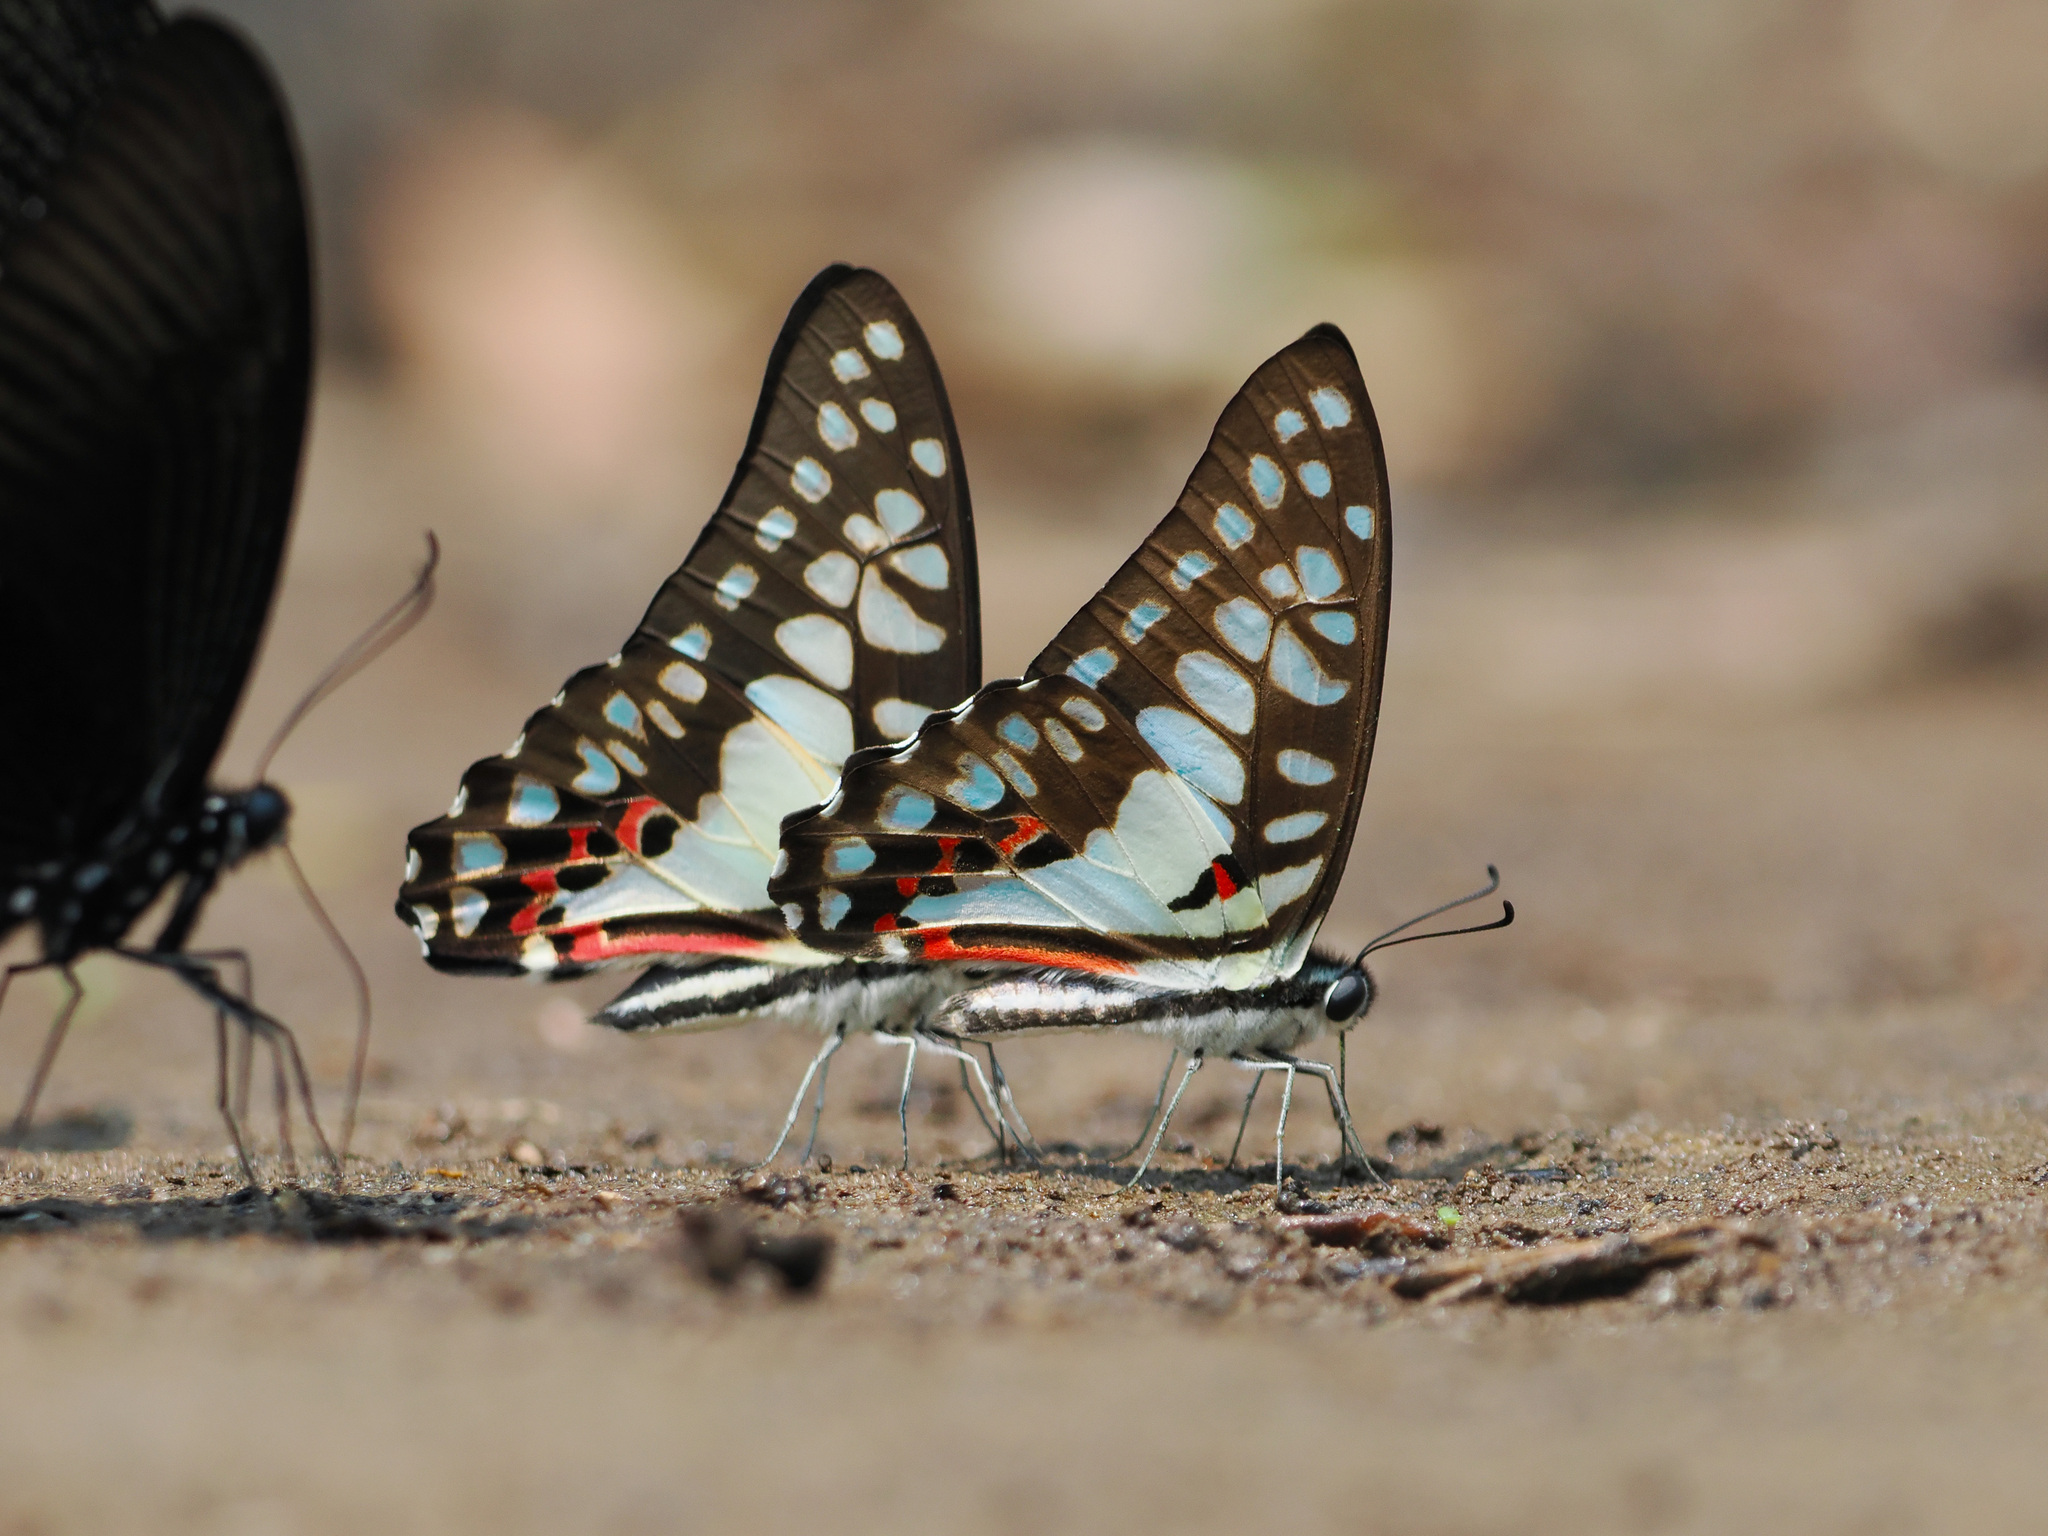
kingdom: Animalia
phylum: Arthropoda
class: Insecta
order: Lepidoptera
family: Papilionidae
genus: Graphium
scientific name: Graphium doson
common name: Common jay
